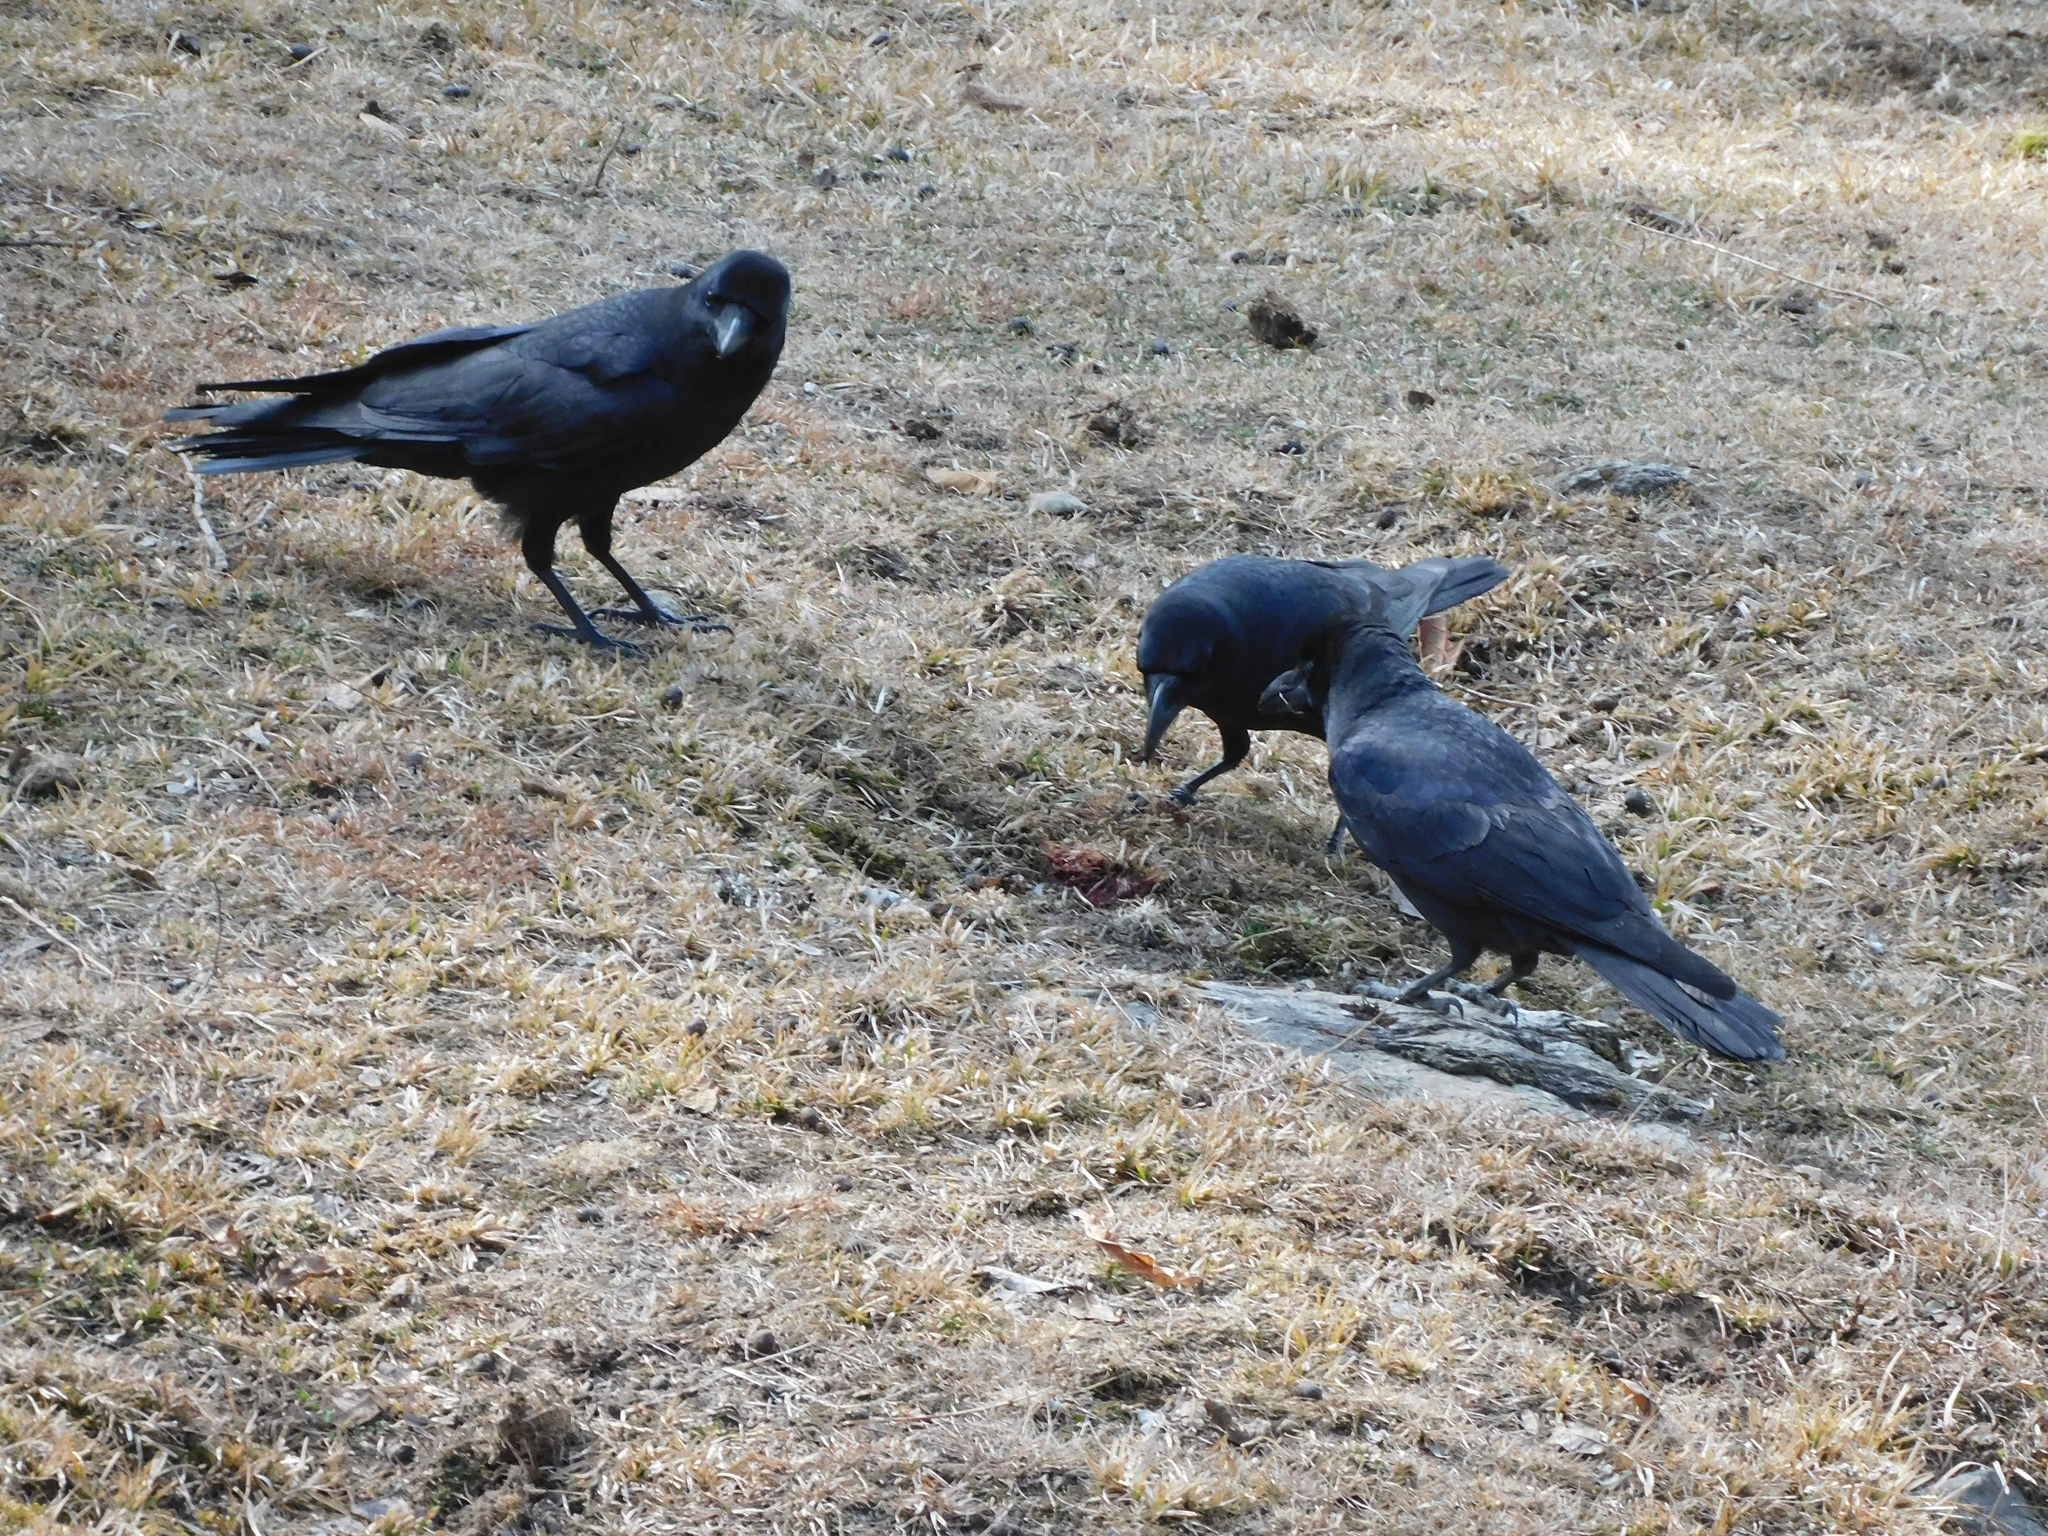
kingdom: Animalia
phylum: Chordata
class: Aves
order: Passeriformes
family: Corvidae
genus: Corvus
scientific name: Corvus macrorhynchos
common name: Large-billed crow
